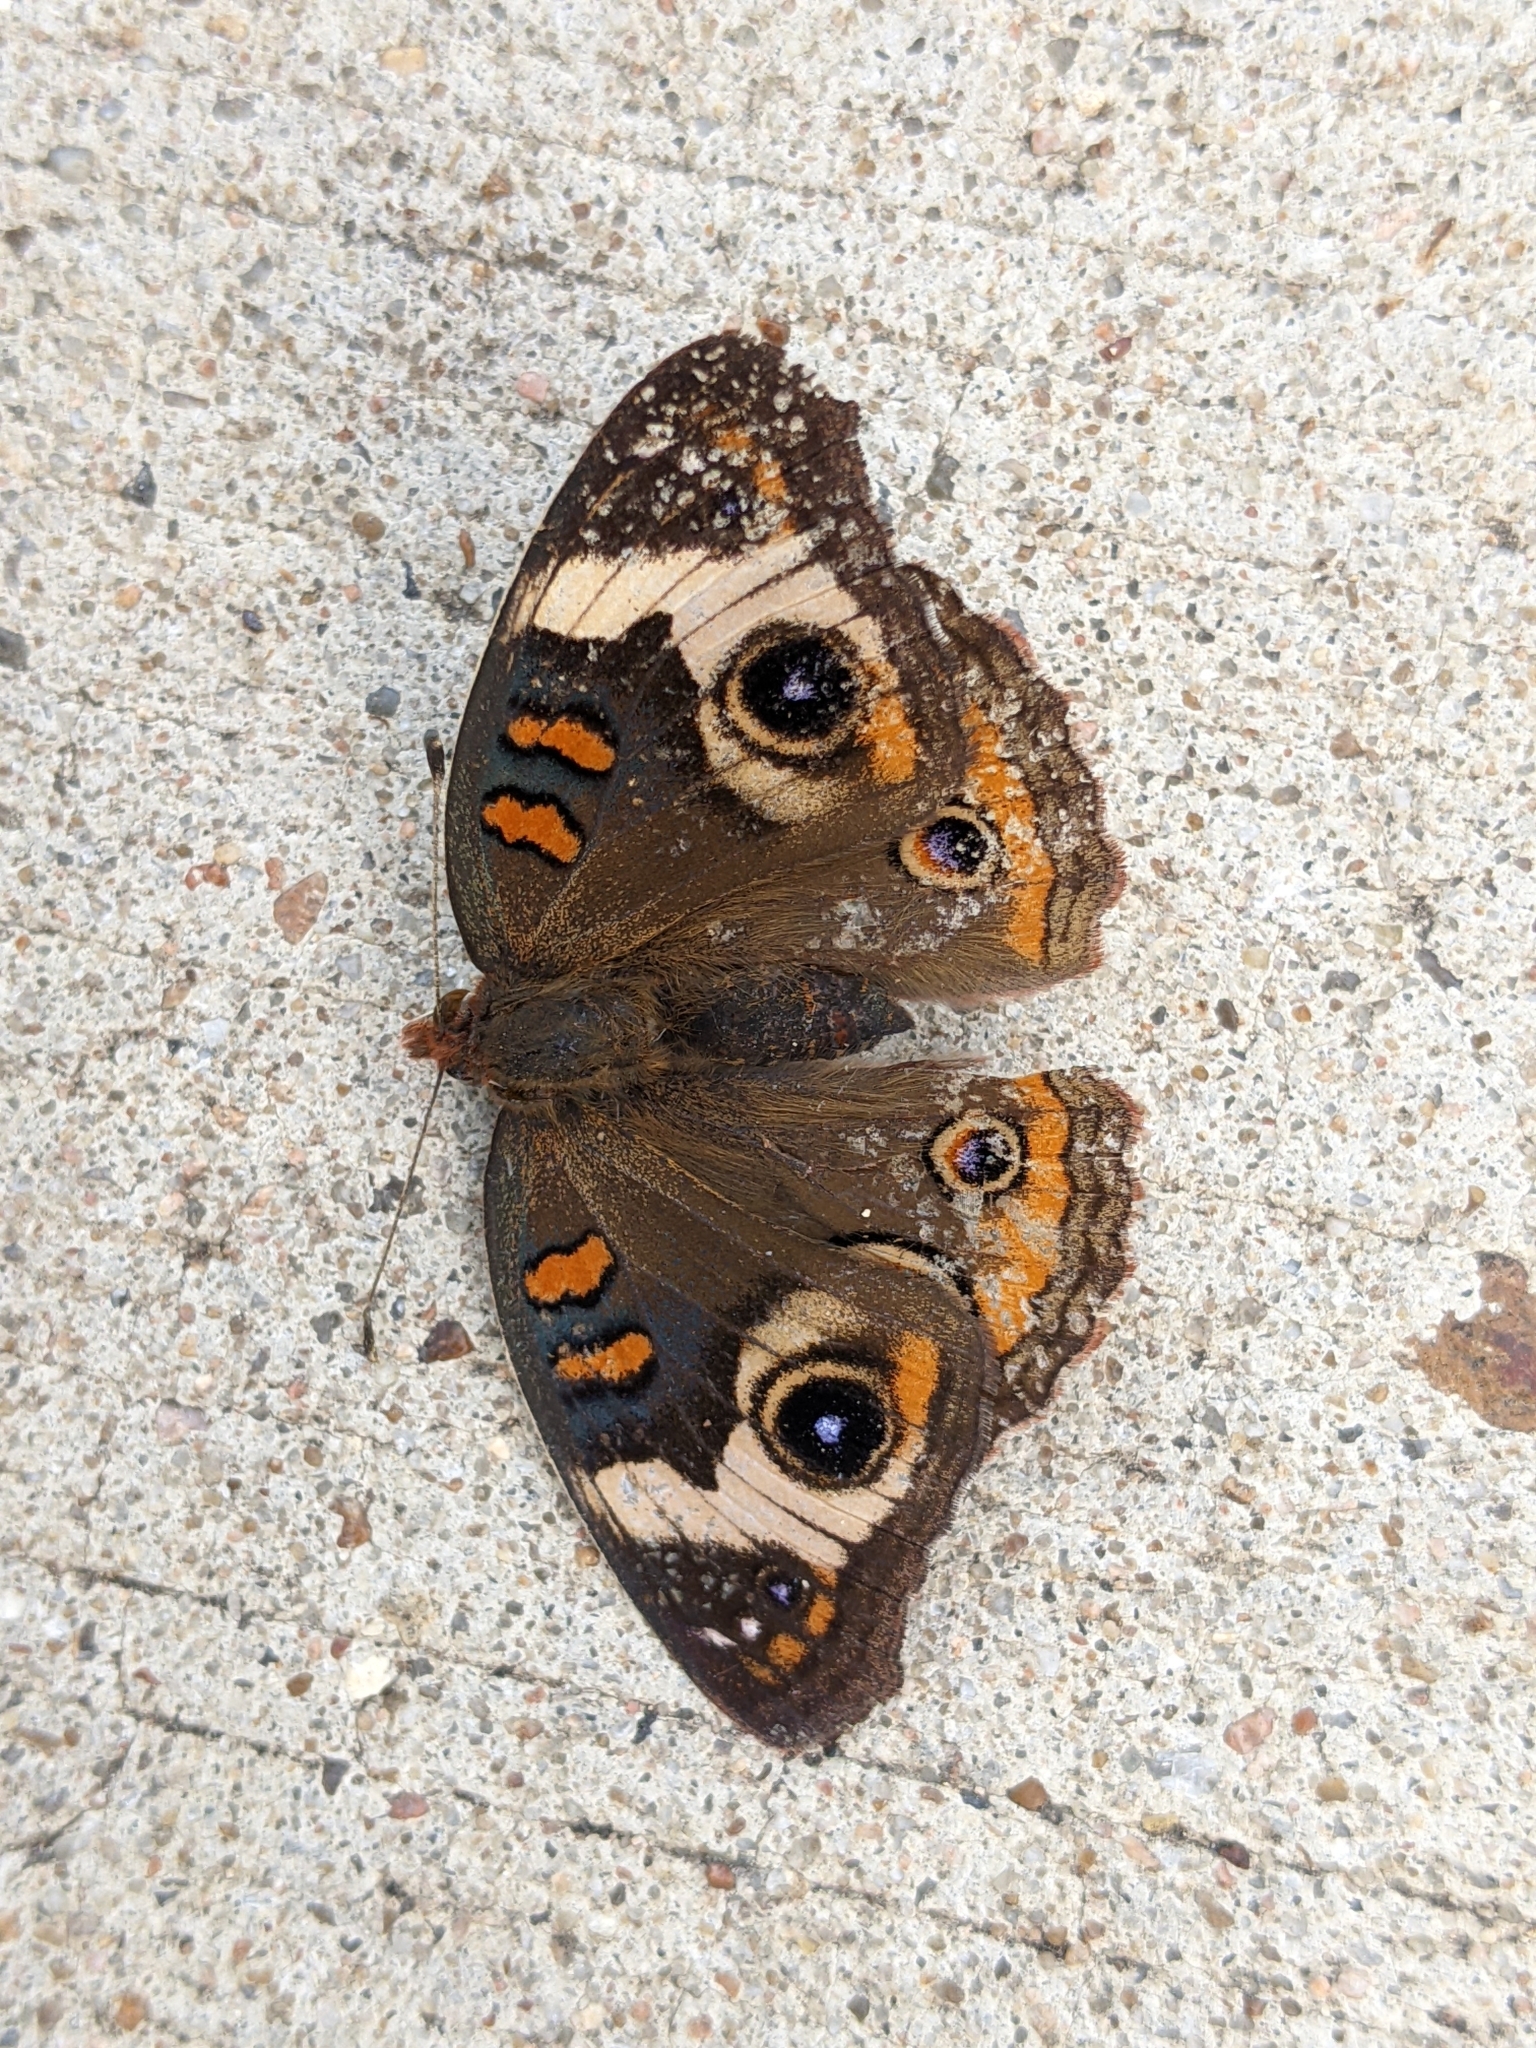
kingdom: Animalia
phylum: Arthropoda
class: Insecta
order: Lepidoptera
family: Nymphalidae
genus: Junonia
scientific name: Junonia coenia
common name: Common buckeye
